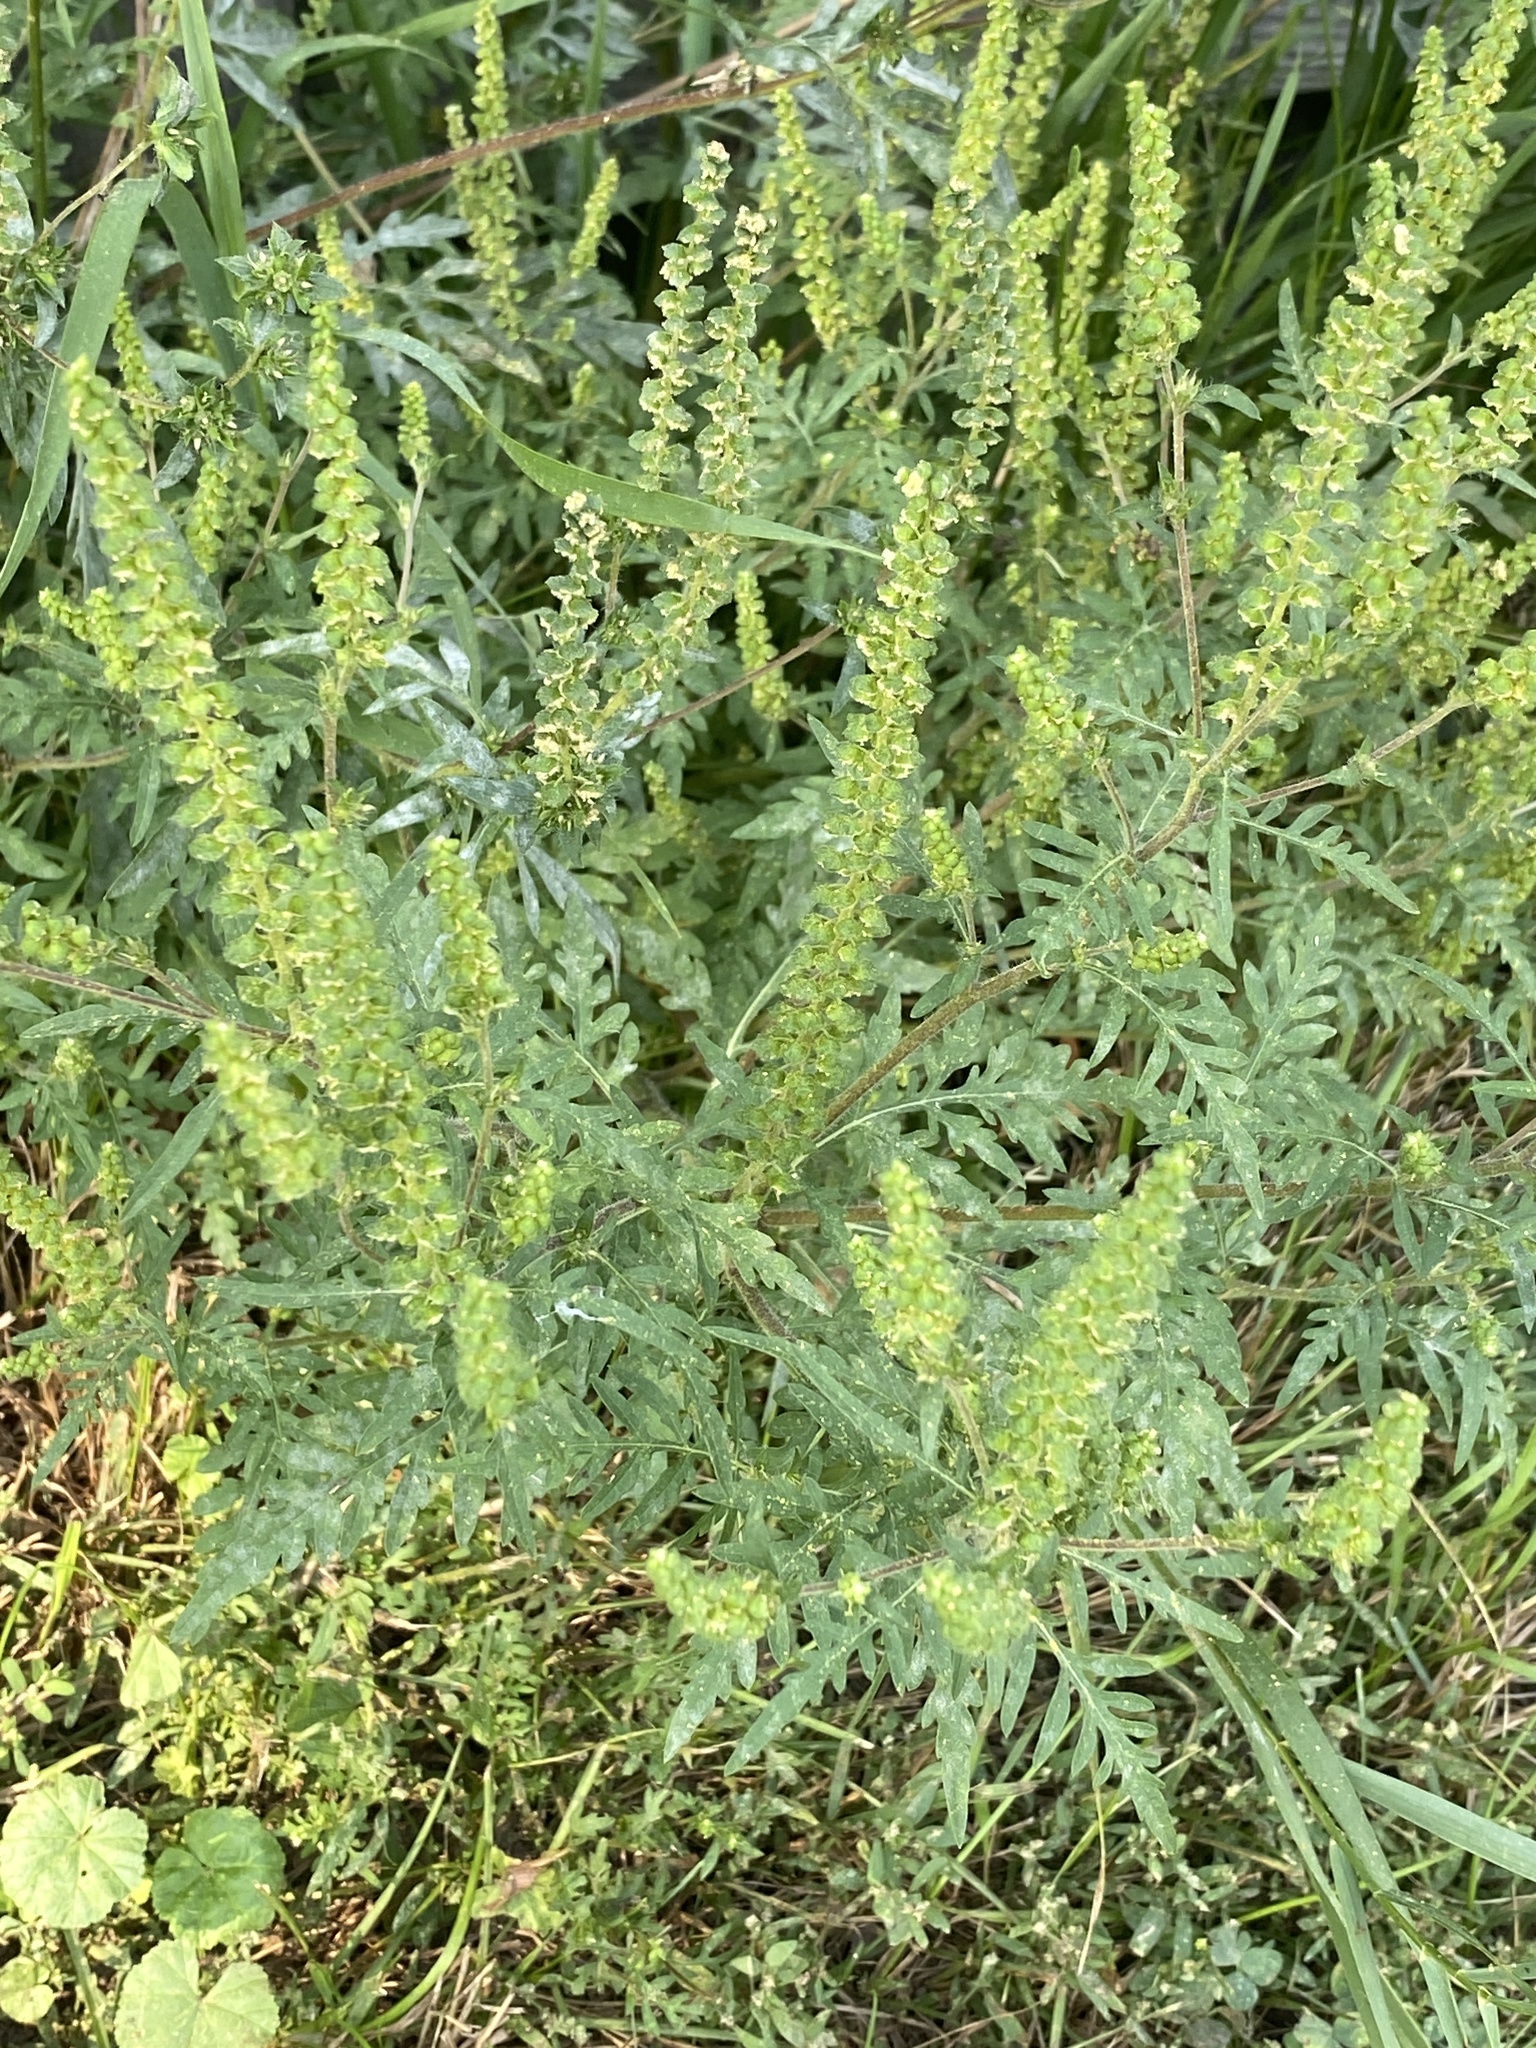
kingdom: Plantae
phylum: Tracheophyta
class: Magnoliopsida
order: Asterales
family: Asteraceae
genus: Ambrosia
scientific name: Ambrosia artemisiifolia
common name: Annual ragweed
